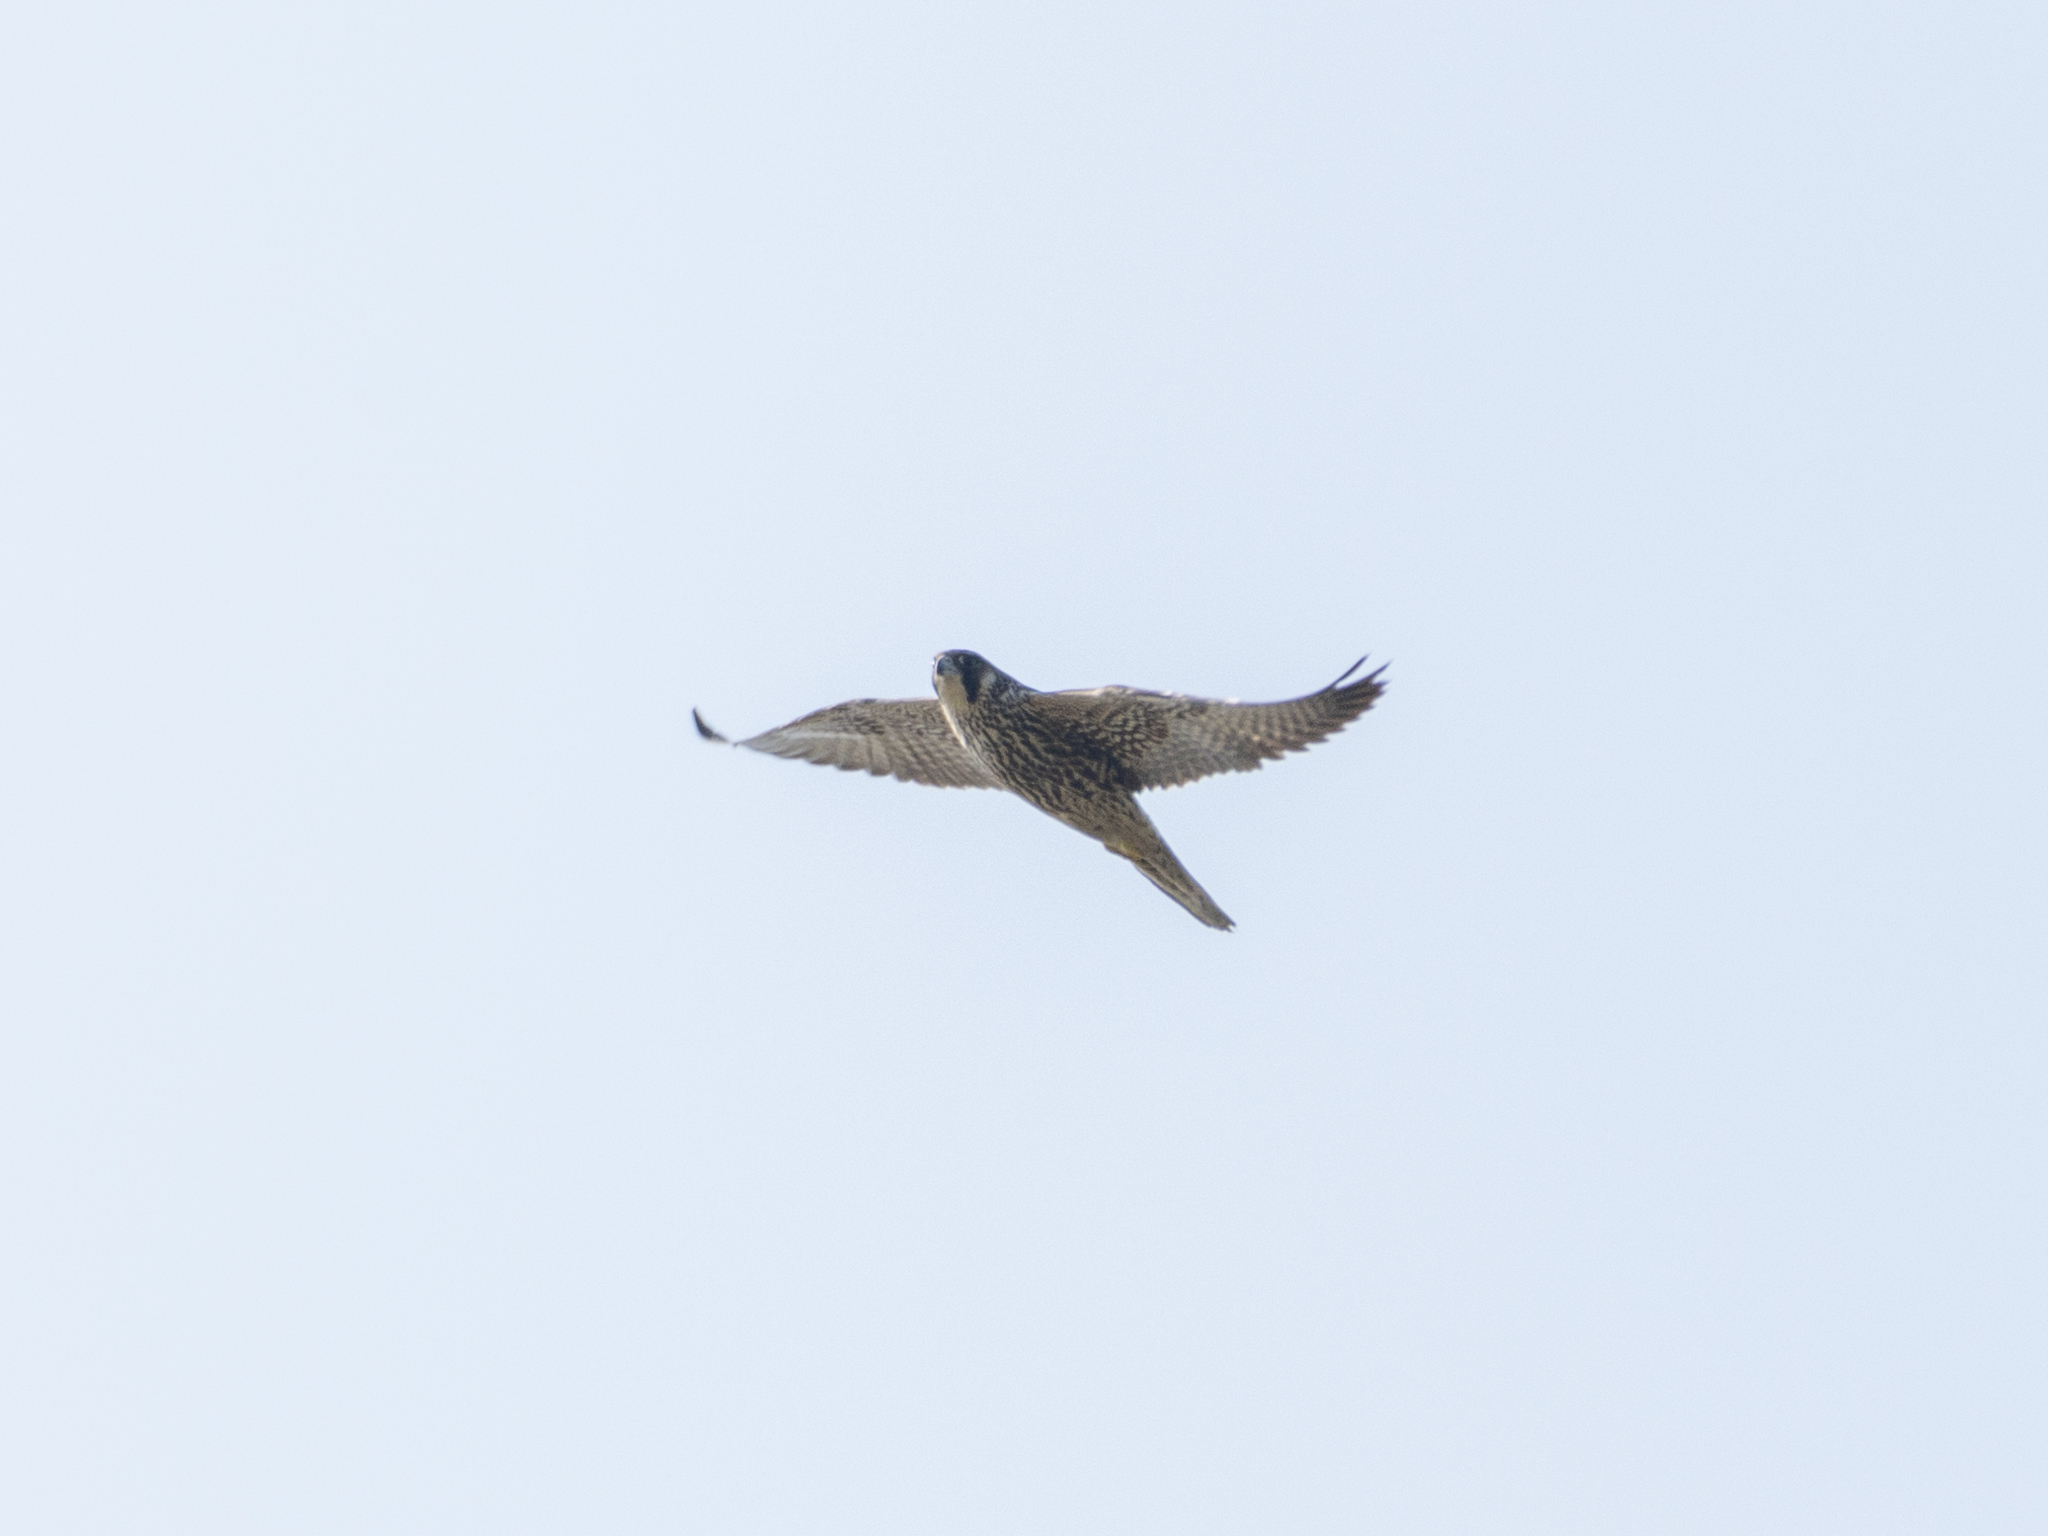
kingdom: Animalia
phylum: Chordata
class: Aves
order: Falconiformes
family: Falconidae
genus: Falco
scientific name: Falco subbuteo
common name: Eurasian hobby
